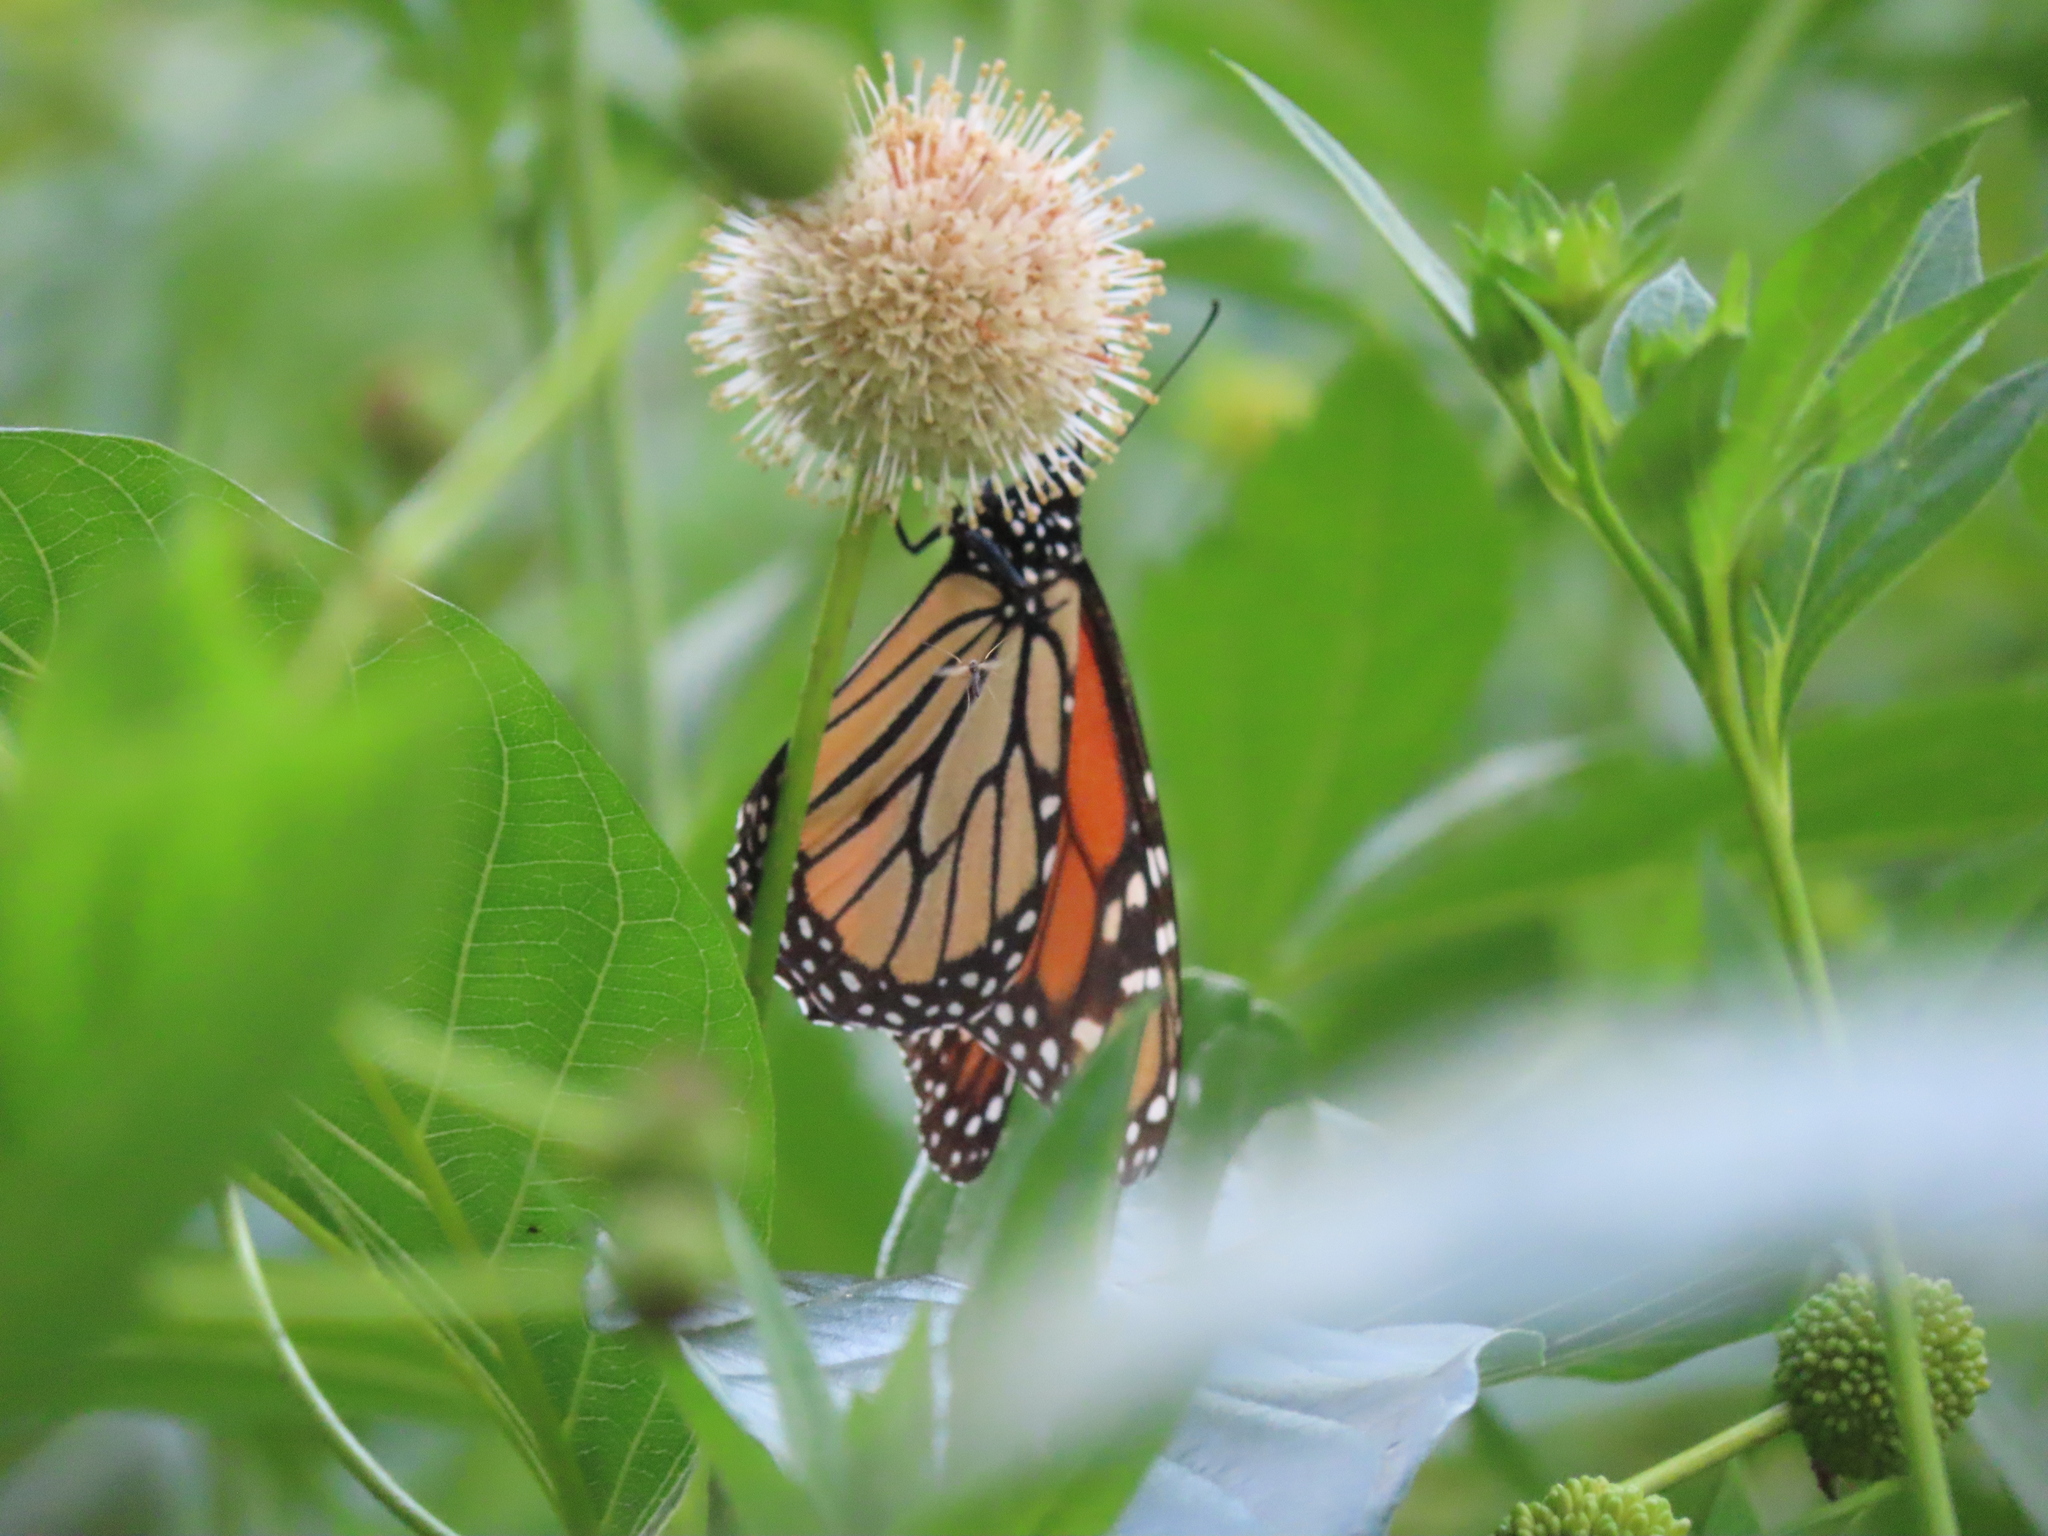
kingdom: Animalia
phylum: Arthropoda
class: Insecta
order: Lepidoptera
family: Nymphalidae
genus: Danaus
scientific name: Danaus plexippus
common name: Monarch
